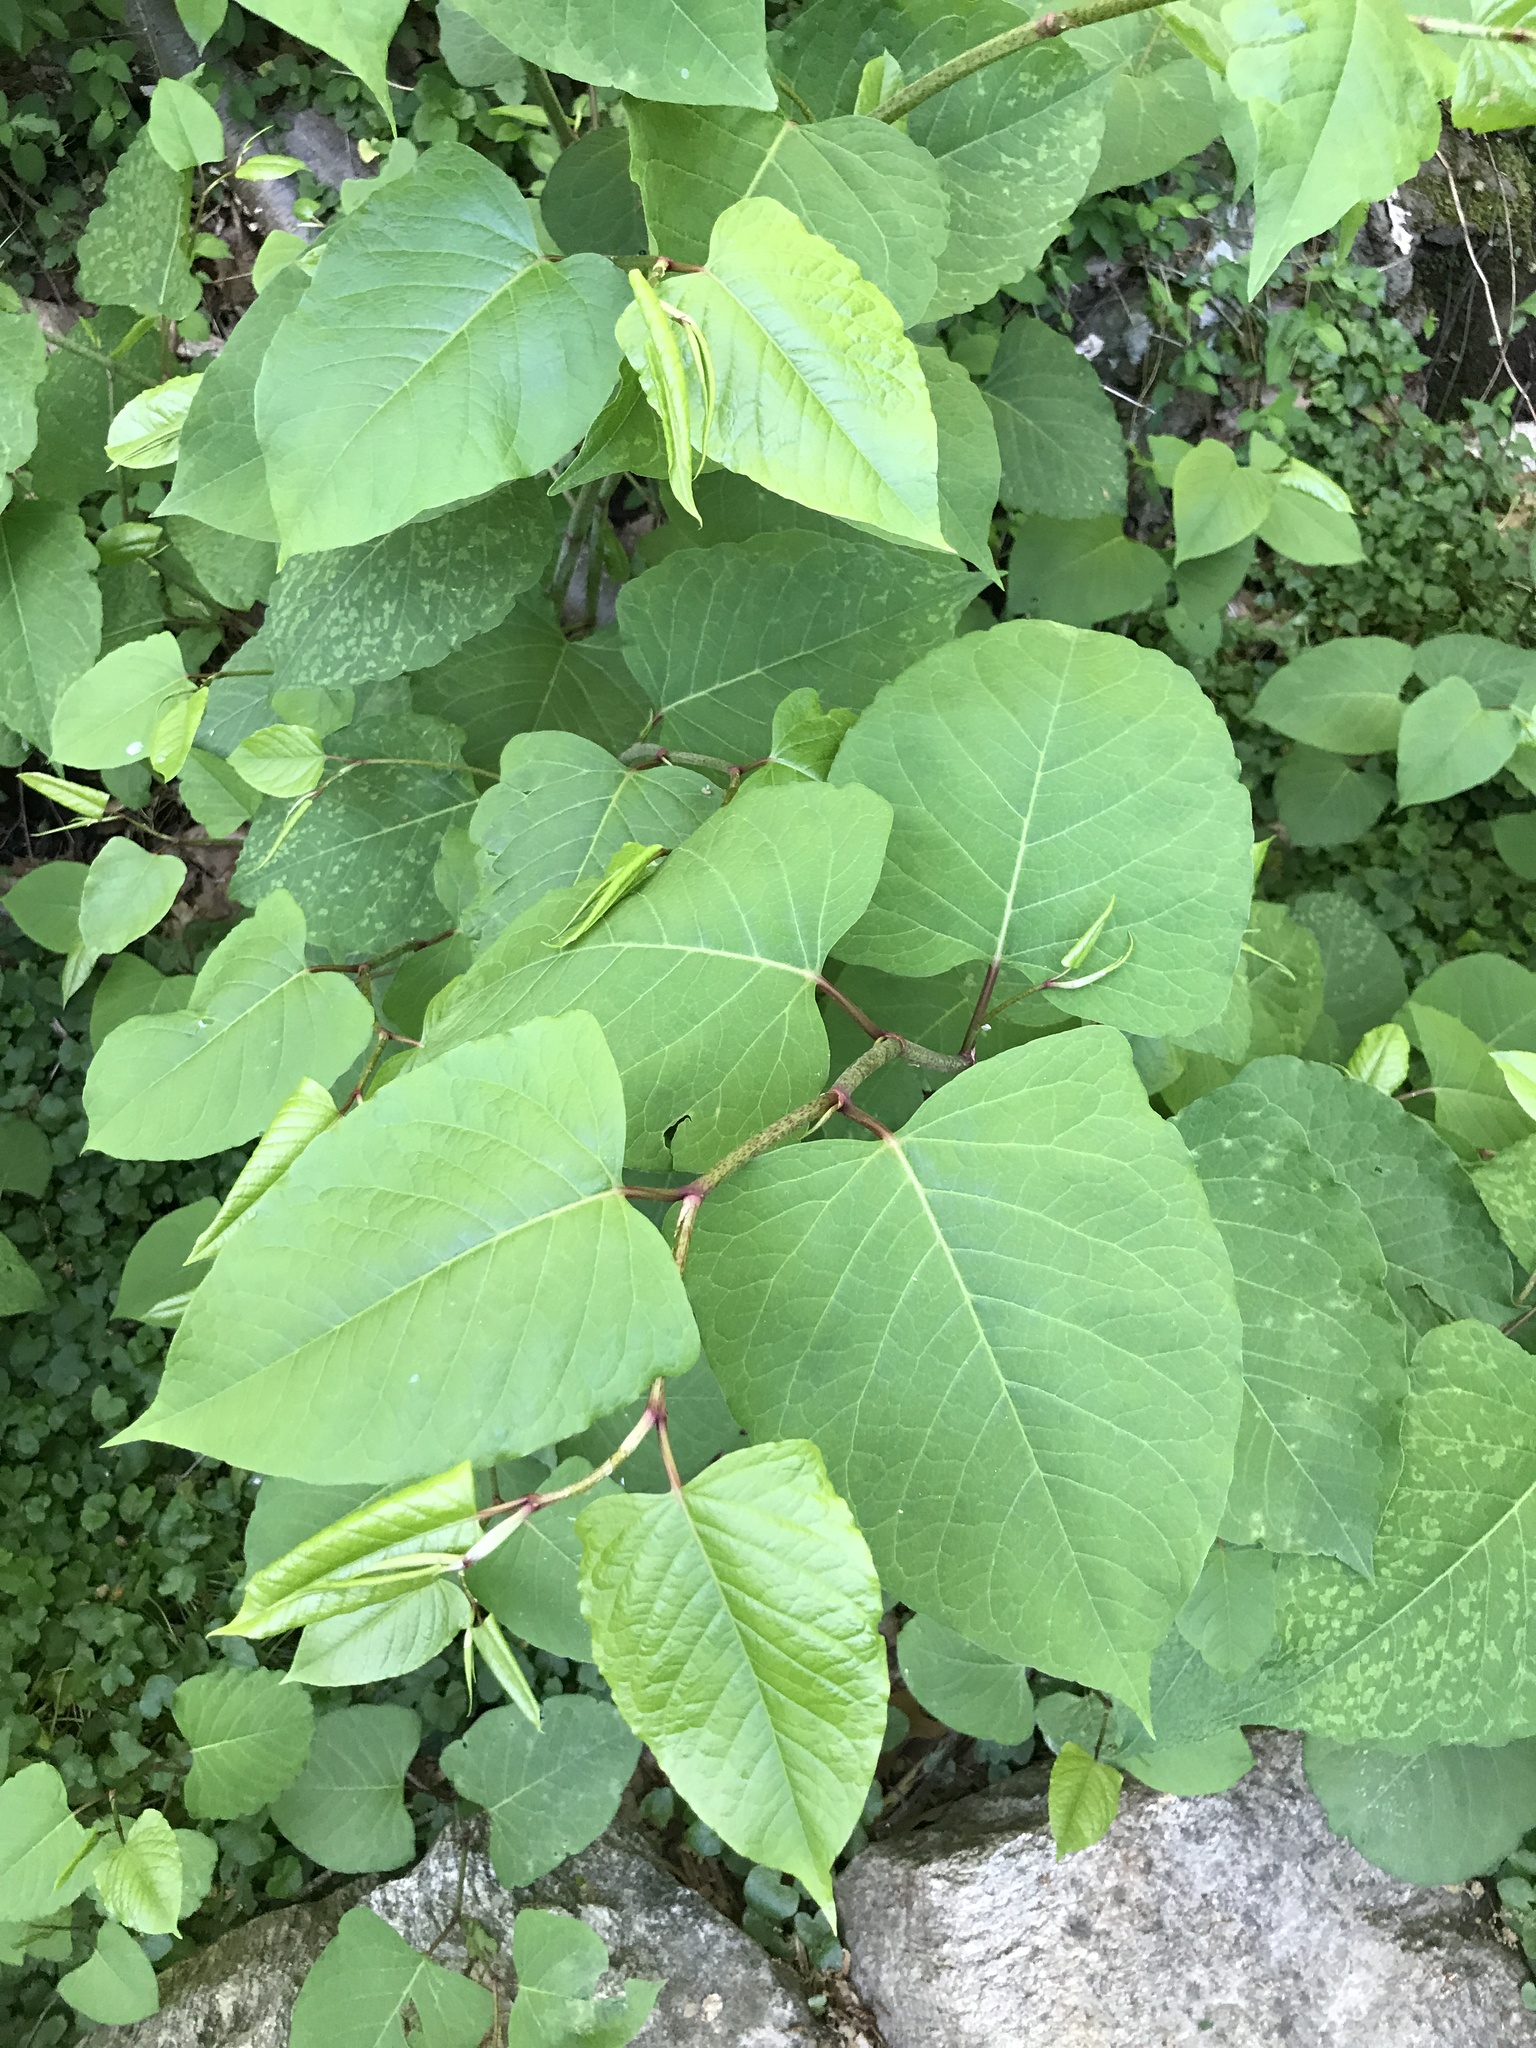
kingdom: Plantae
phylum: Tracheophyta
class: Magnoliopsida
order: Caryophyllales
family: Polygonaceae
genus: Reynoutria
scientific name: Reynoutria japonica
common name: Japanese knotweed
